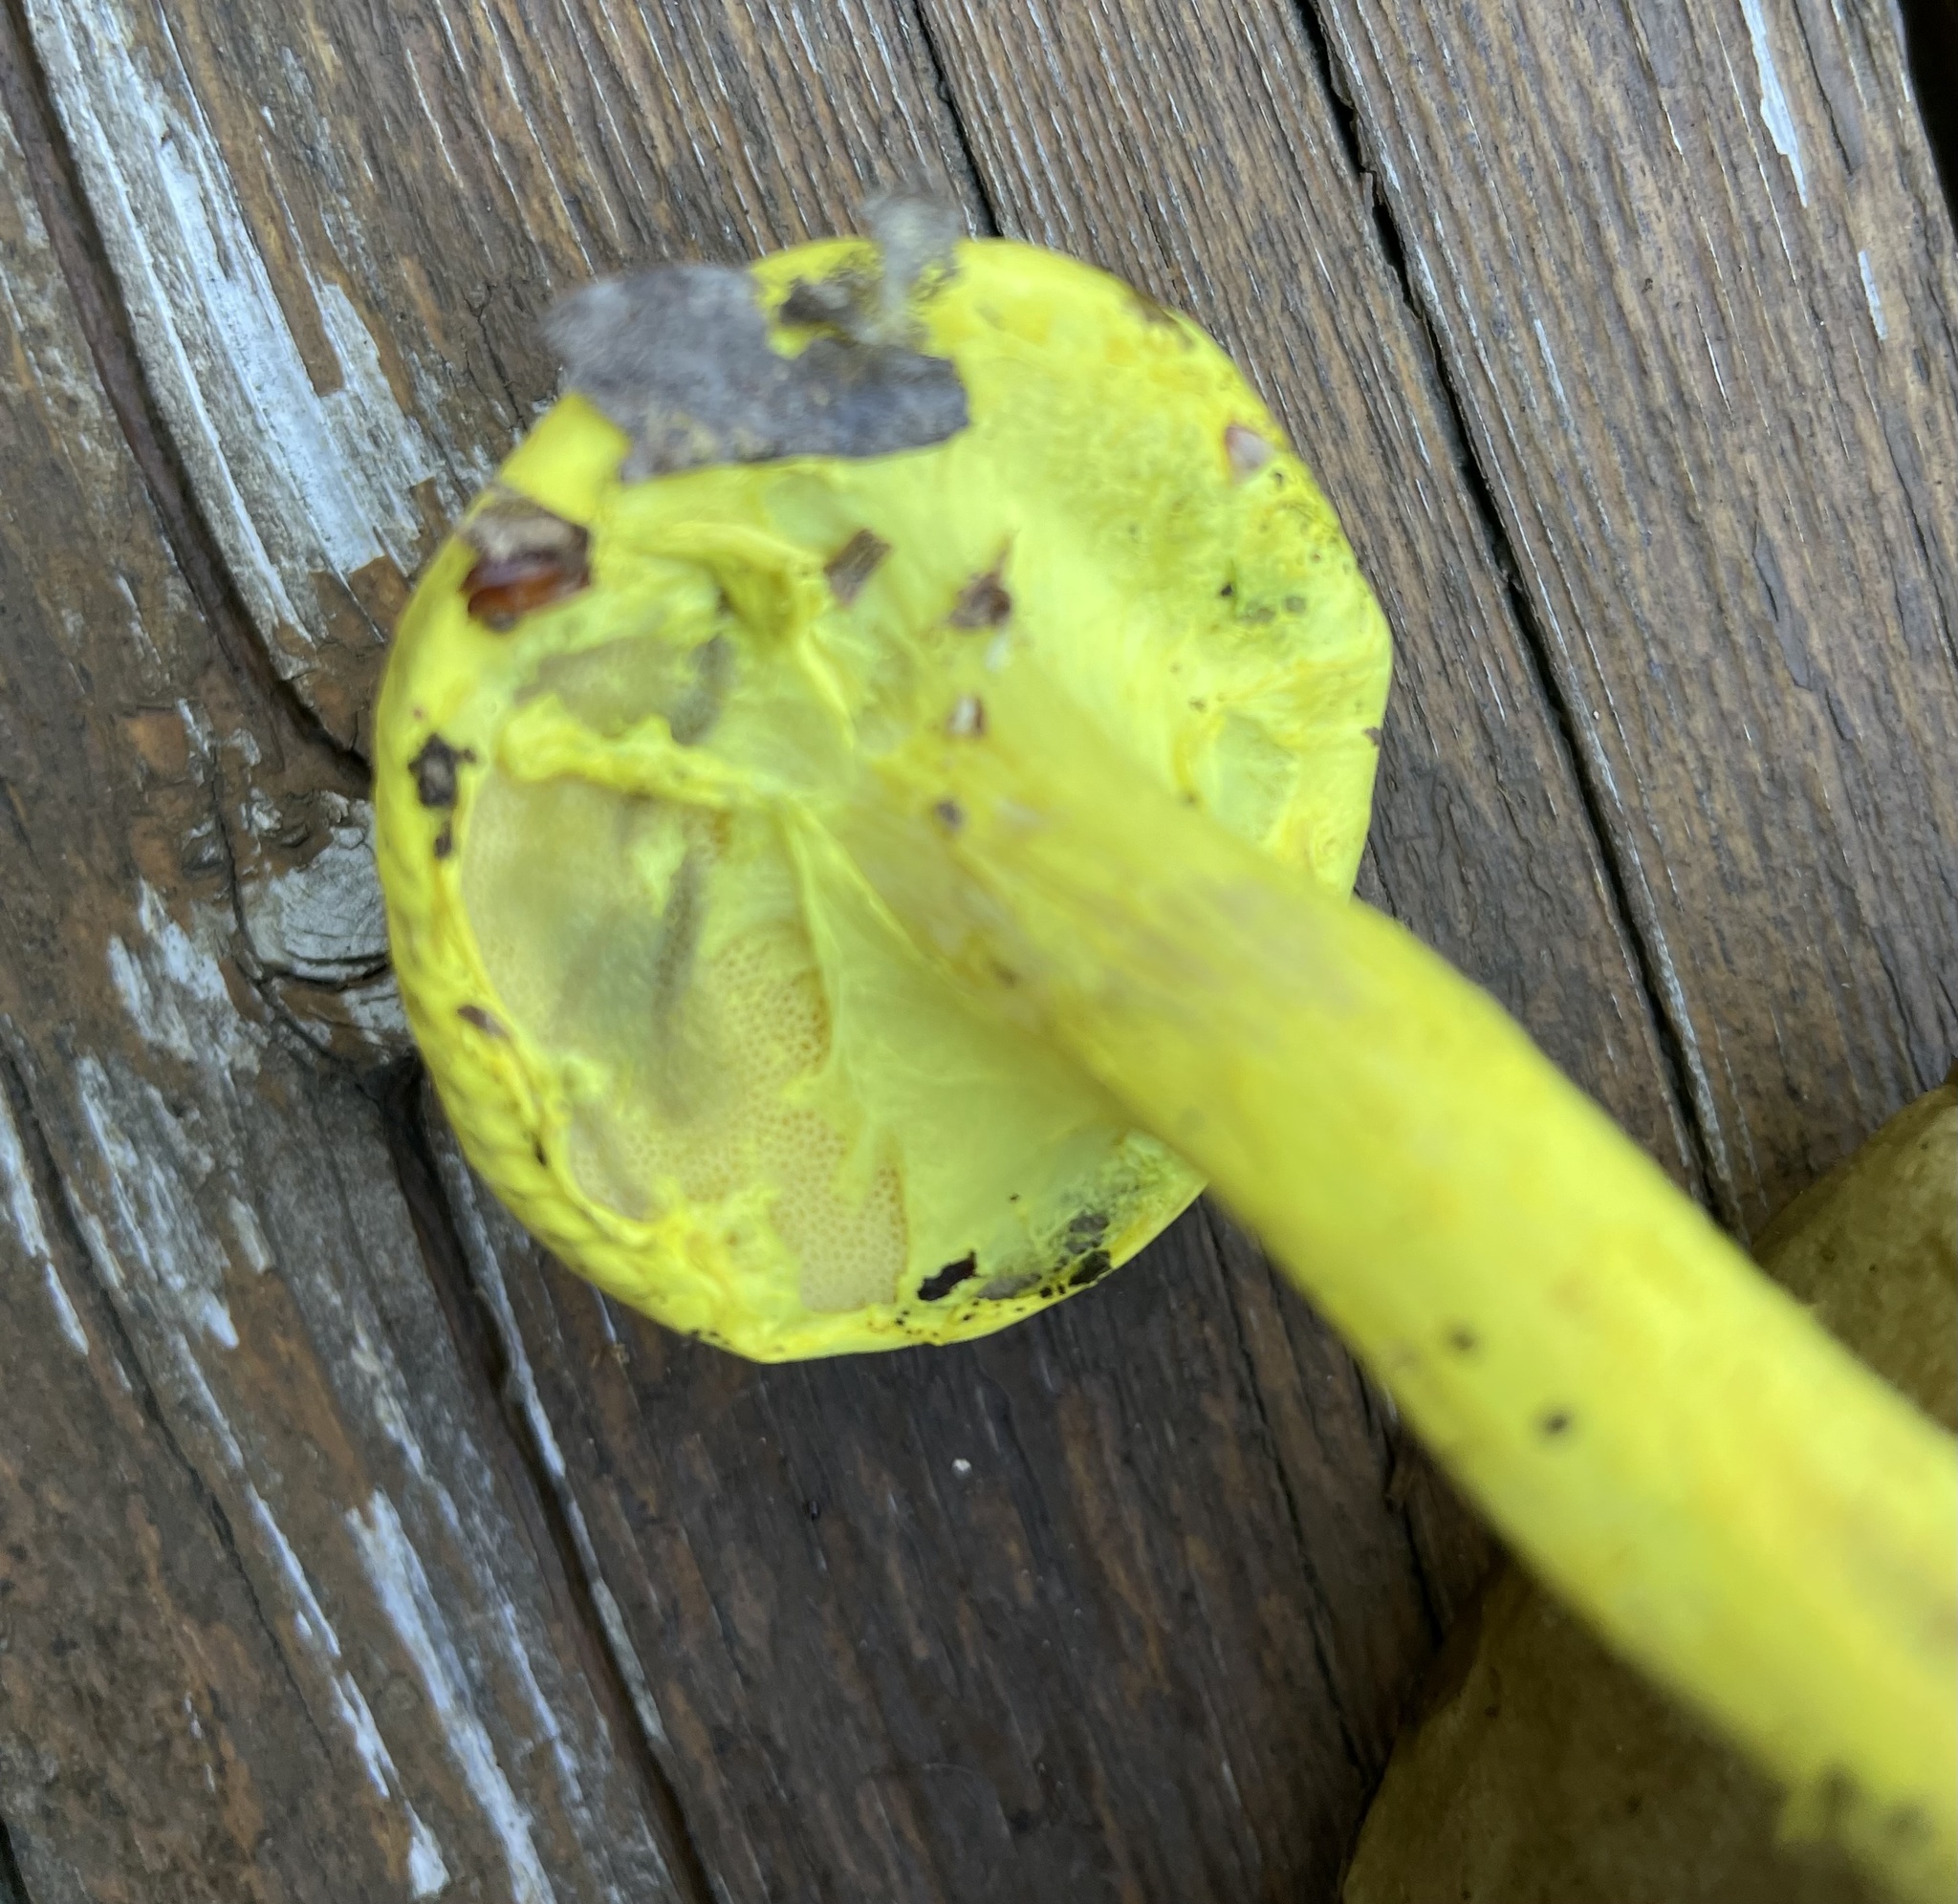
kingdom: Fungi
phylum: Basidiomycota
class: Agaricomycetes
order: Boletales
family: Boletaceae
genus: Pulveroboletus
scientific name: Pulveroboletus ravenelii
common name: Powdery sulfur bolete
